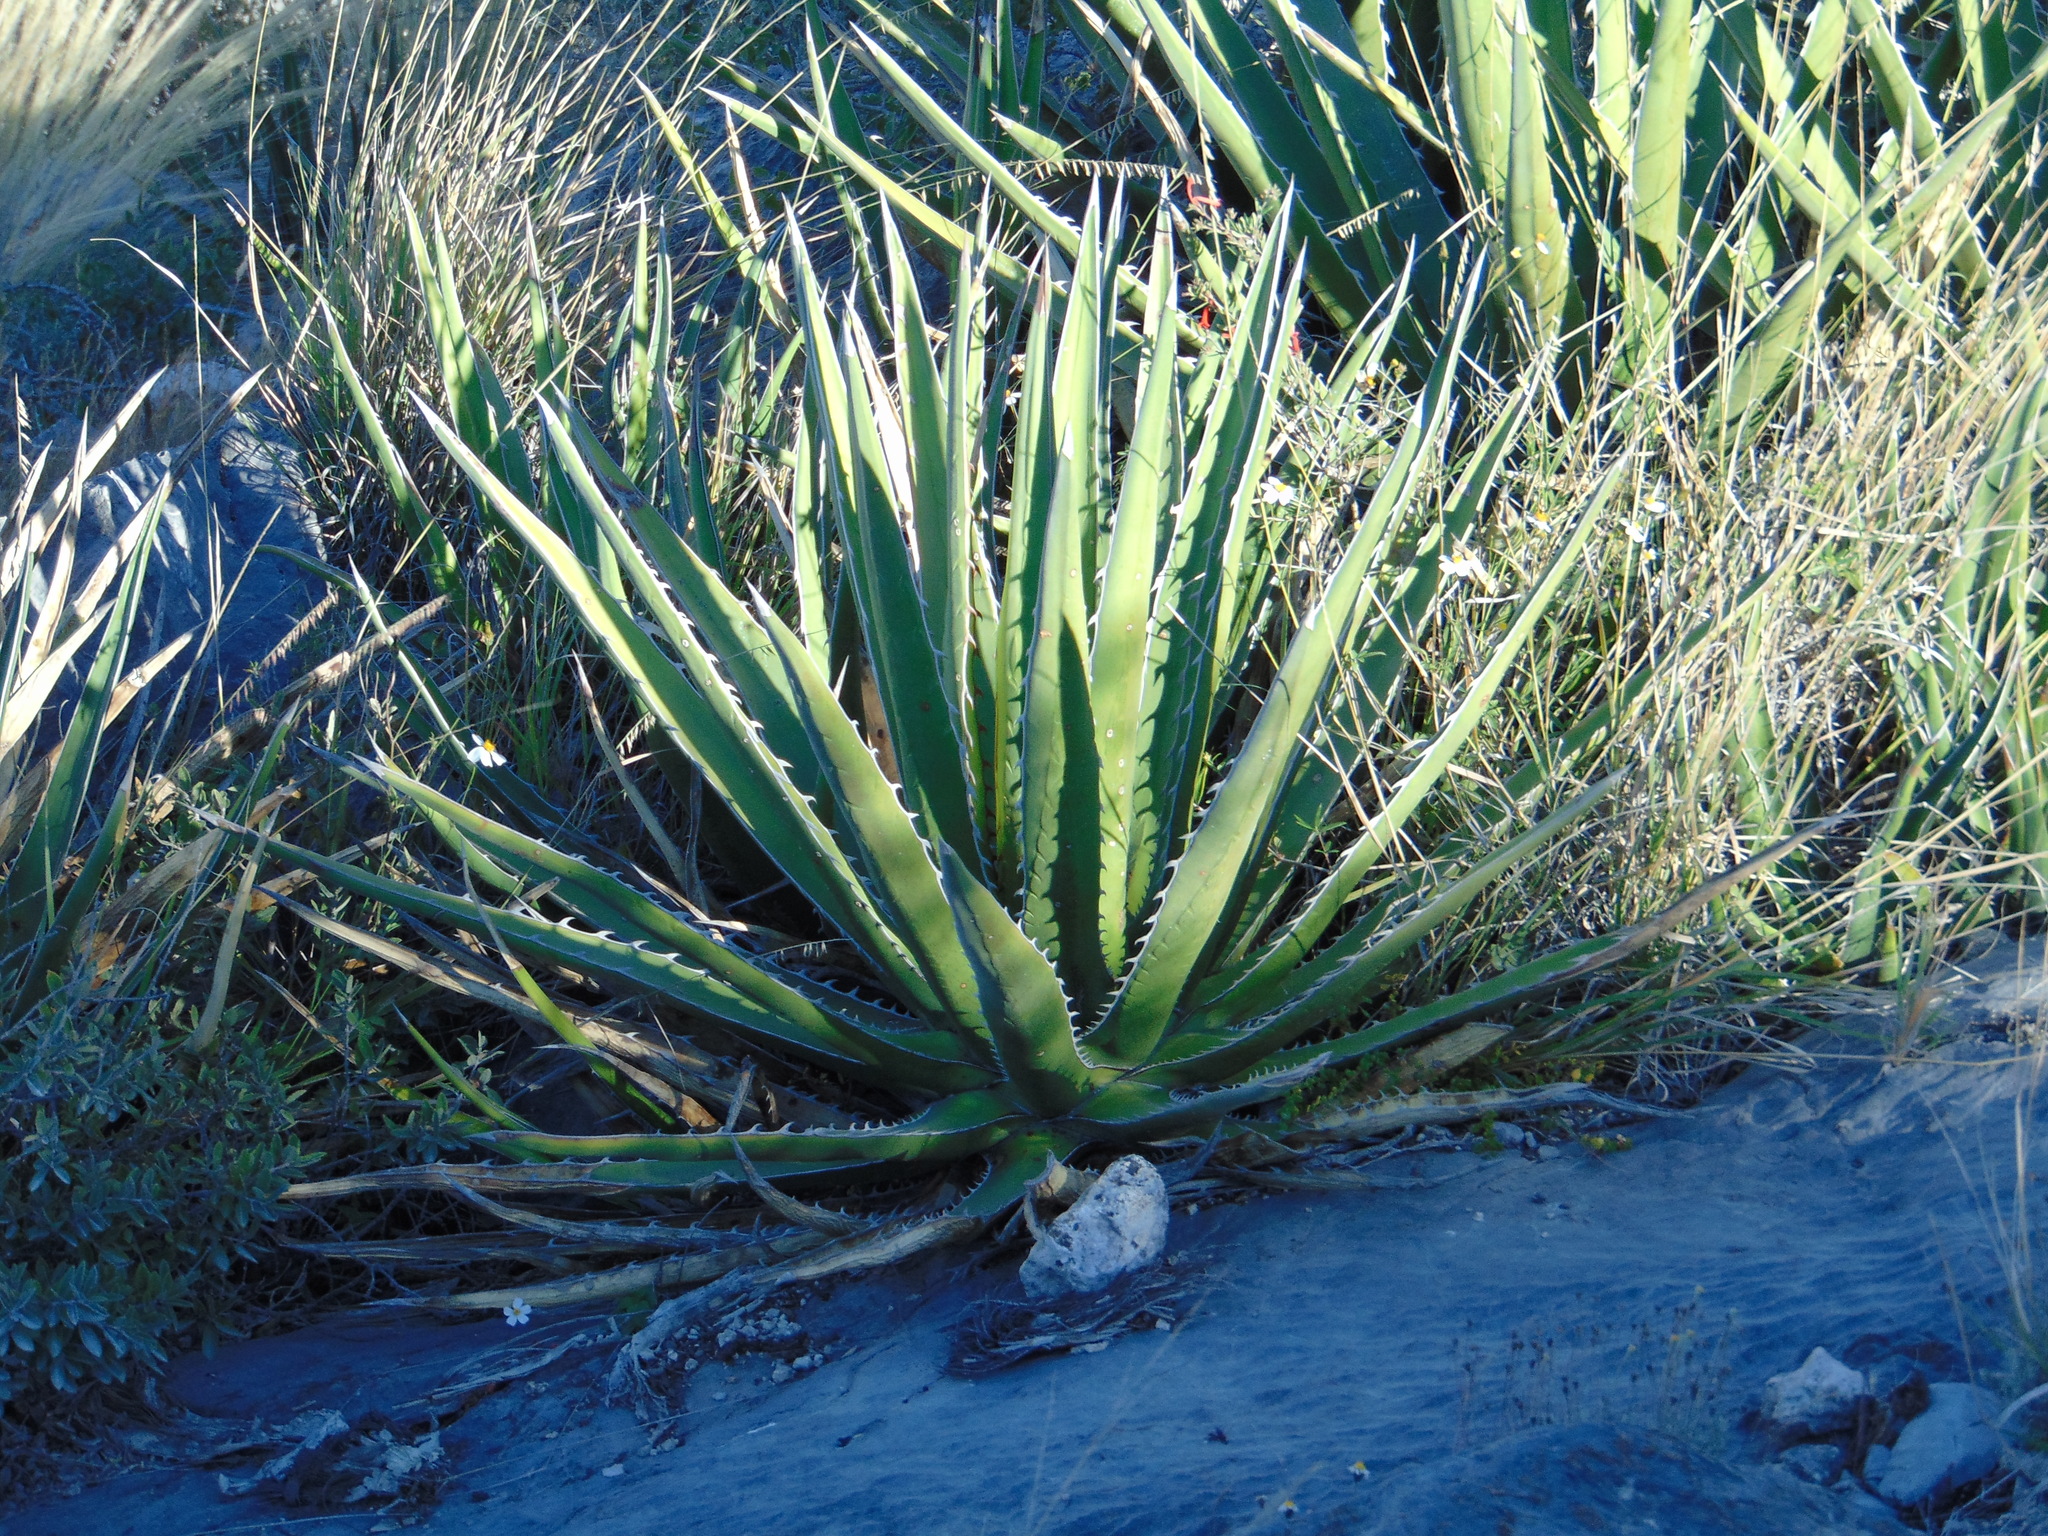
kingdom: Plantae
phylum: Tracheophyta
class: Liliopsida
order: Asparagales
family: Asparagaceae
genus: Agave
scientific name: Agave albomarginata
